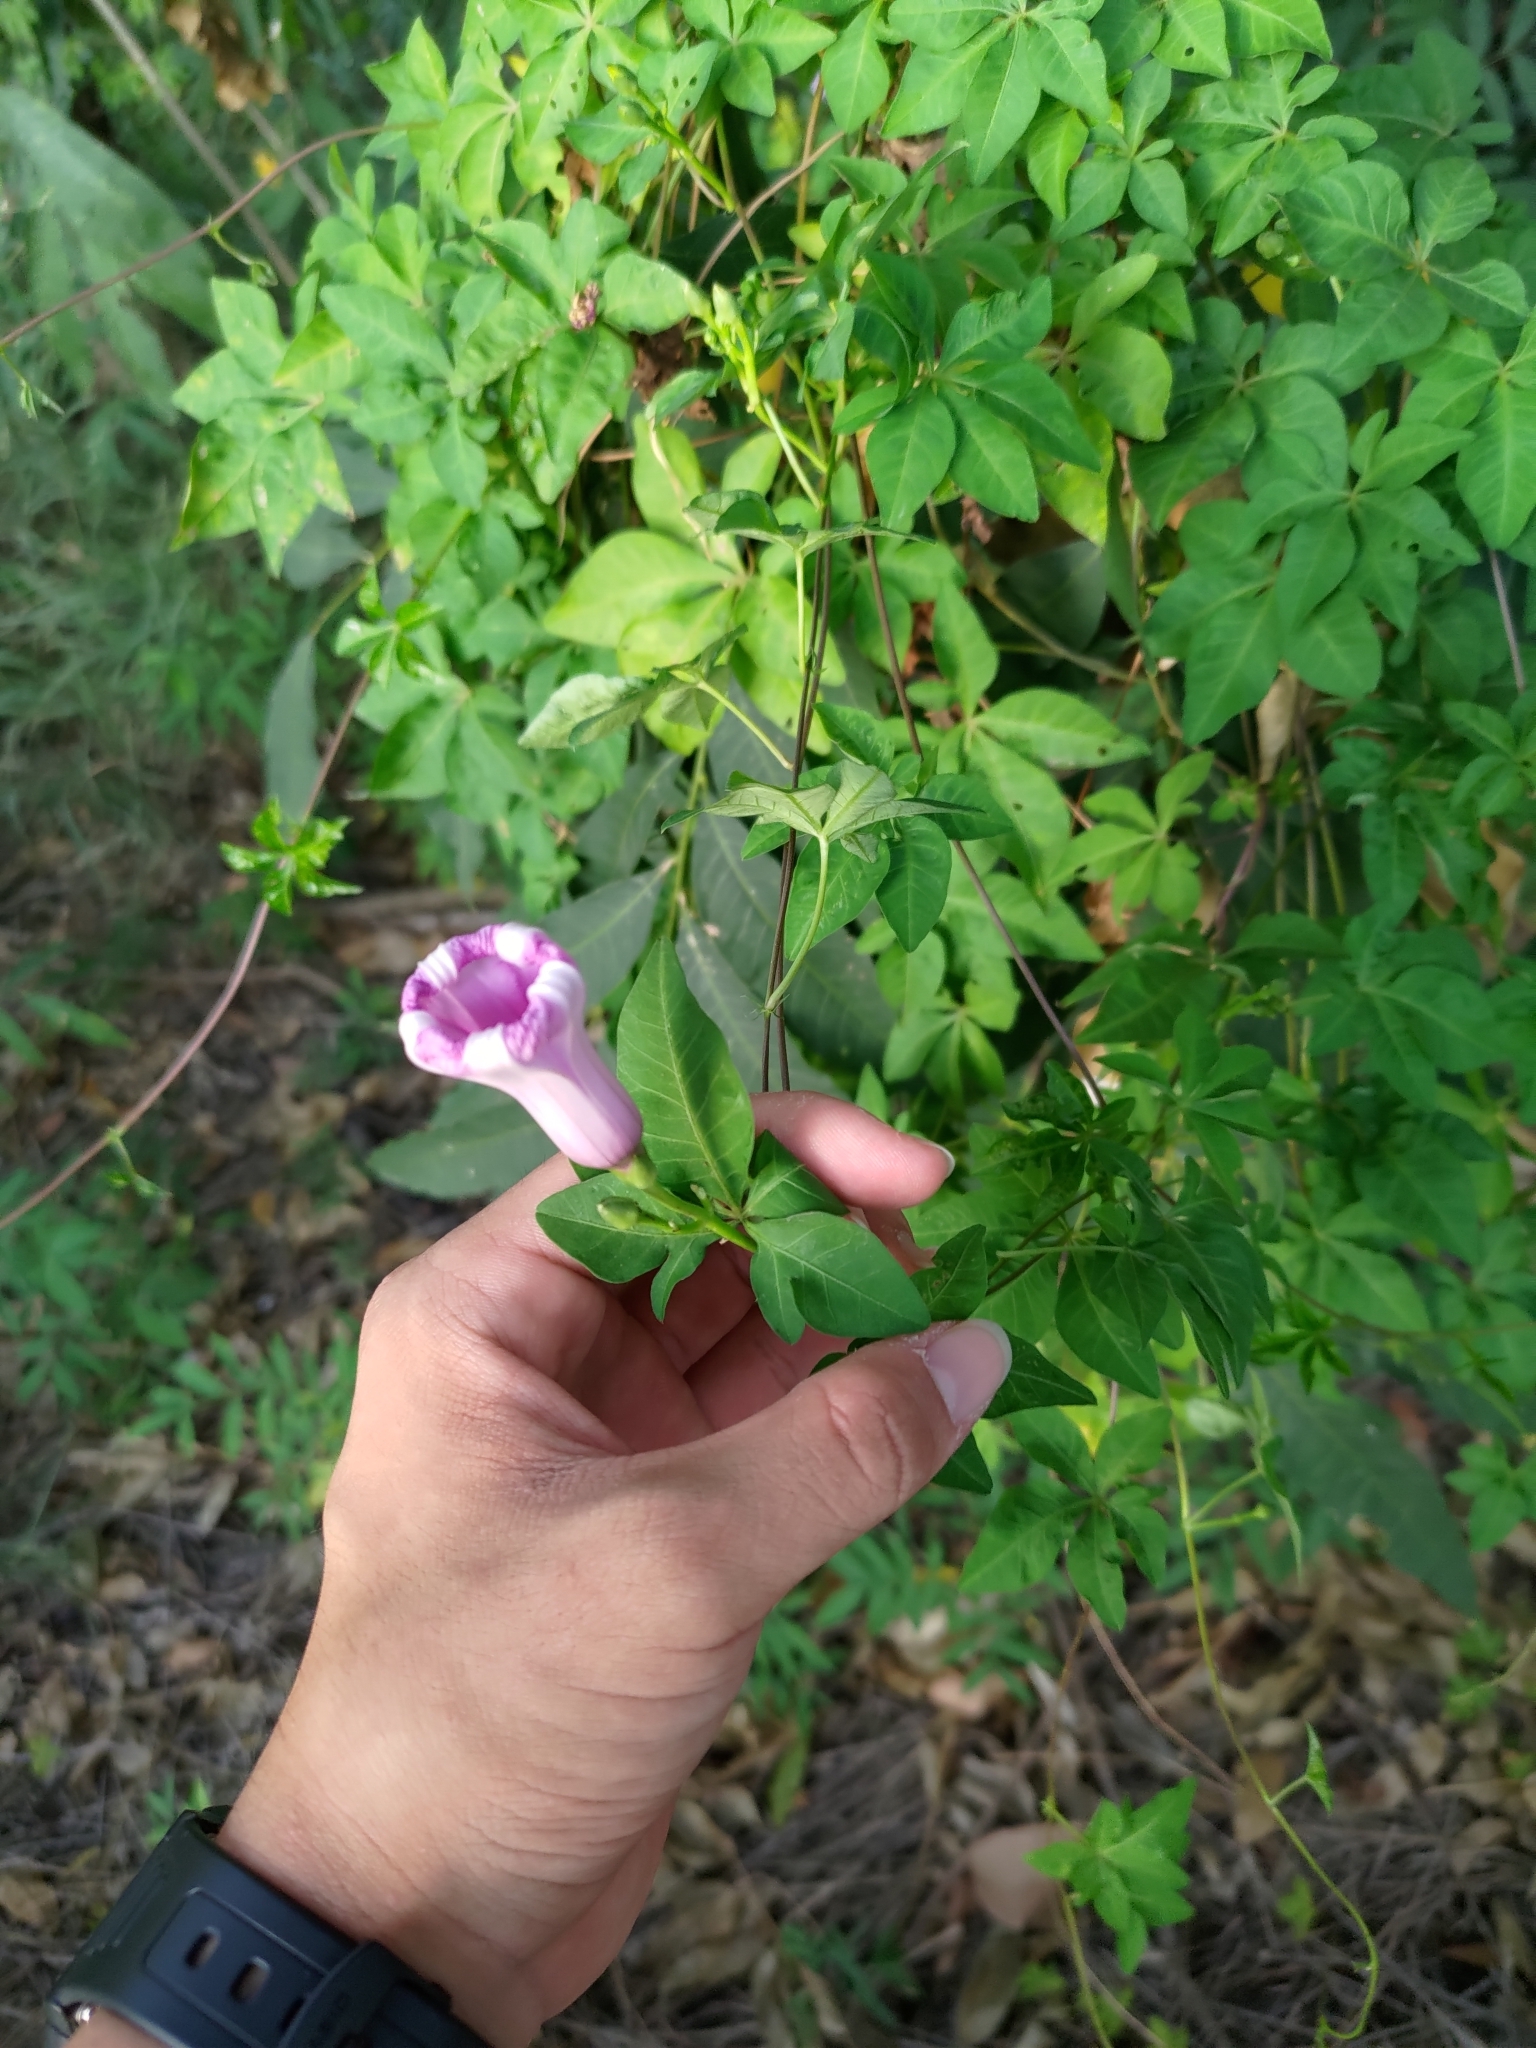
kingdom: Plantae
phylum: Tracheophyta
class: Magnoliopsida
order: Solanales
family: Convolvulaceae
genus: Ipomoea
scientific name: Ipomoea cairica
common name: Mile a minute vine
